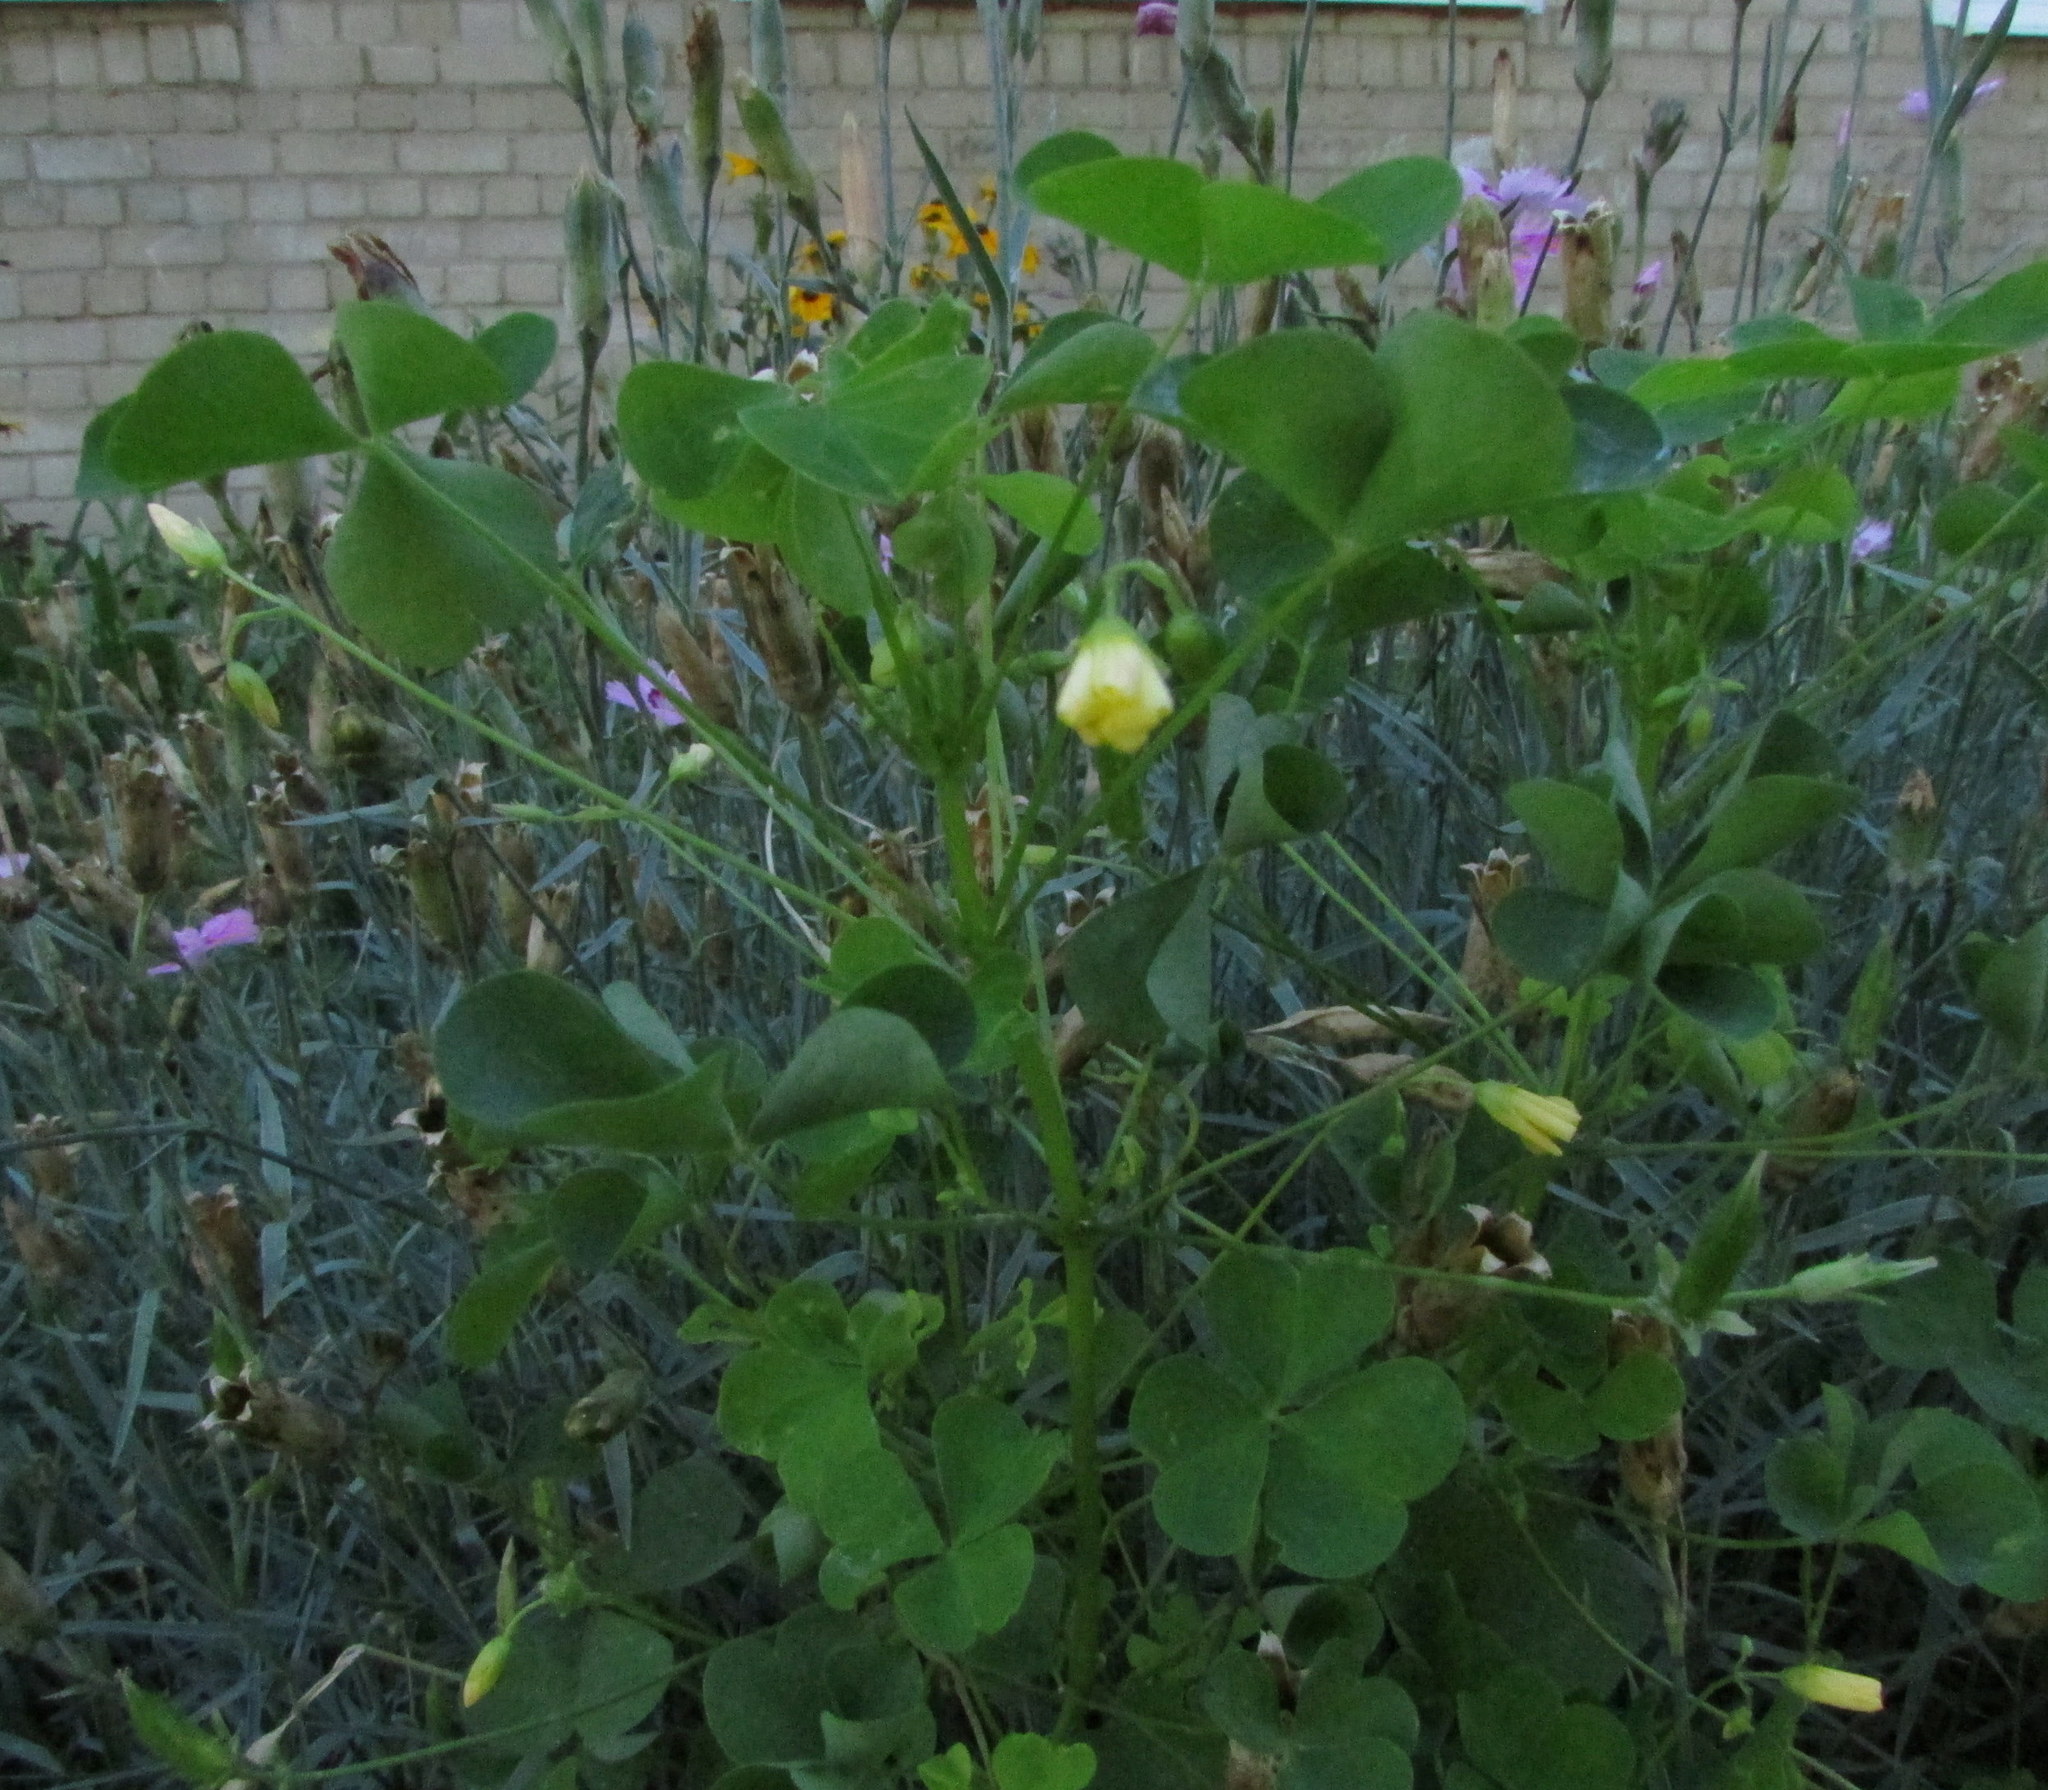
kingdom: Plantae
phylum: Tracheophyta
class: Magnoliopsida
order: Oxalidales
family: Oxalidaceae
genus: Oxalis
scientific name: Oxalis stricta
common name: Upright yellow-sorrel
